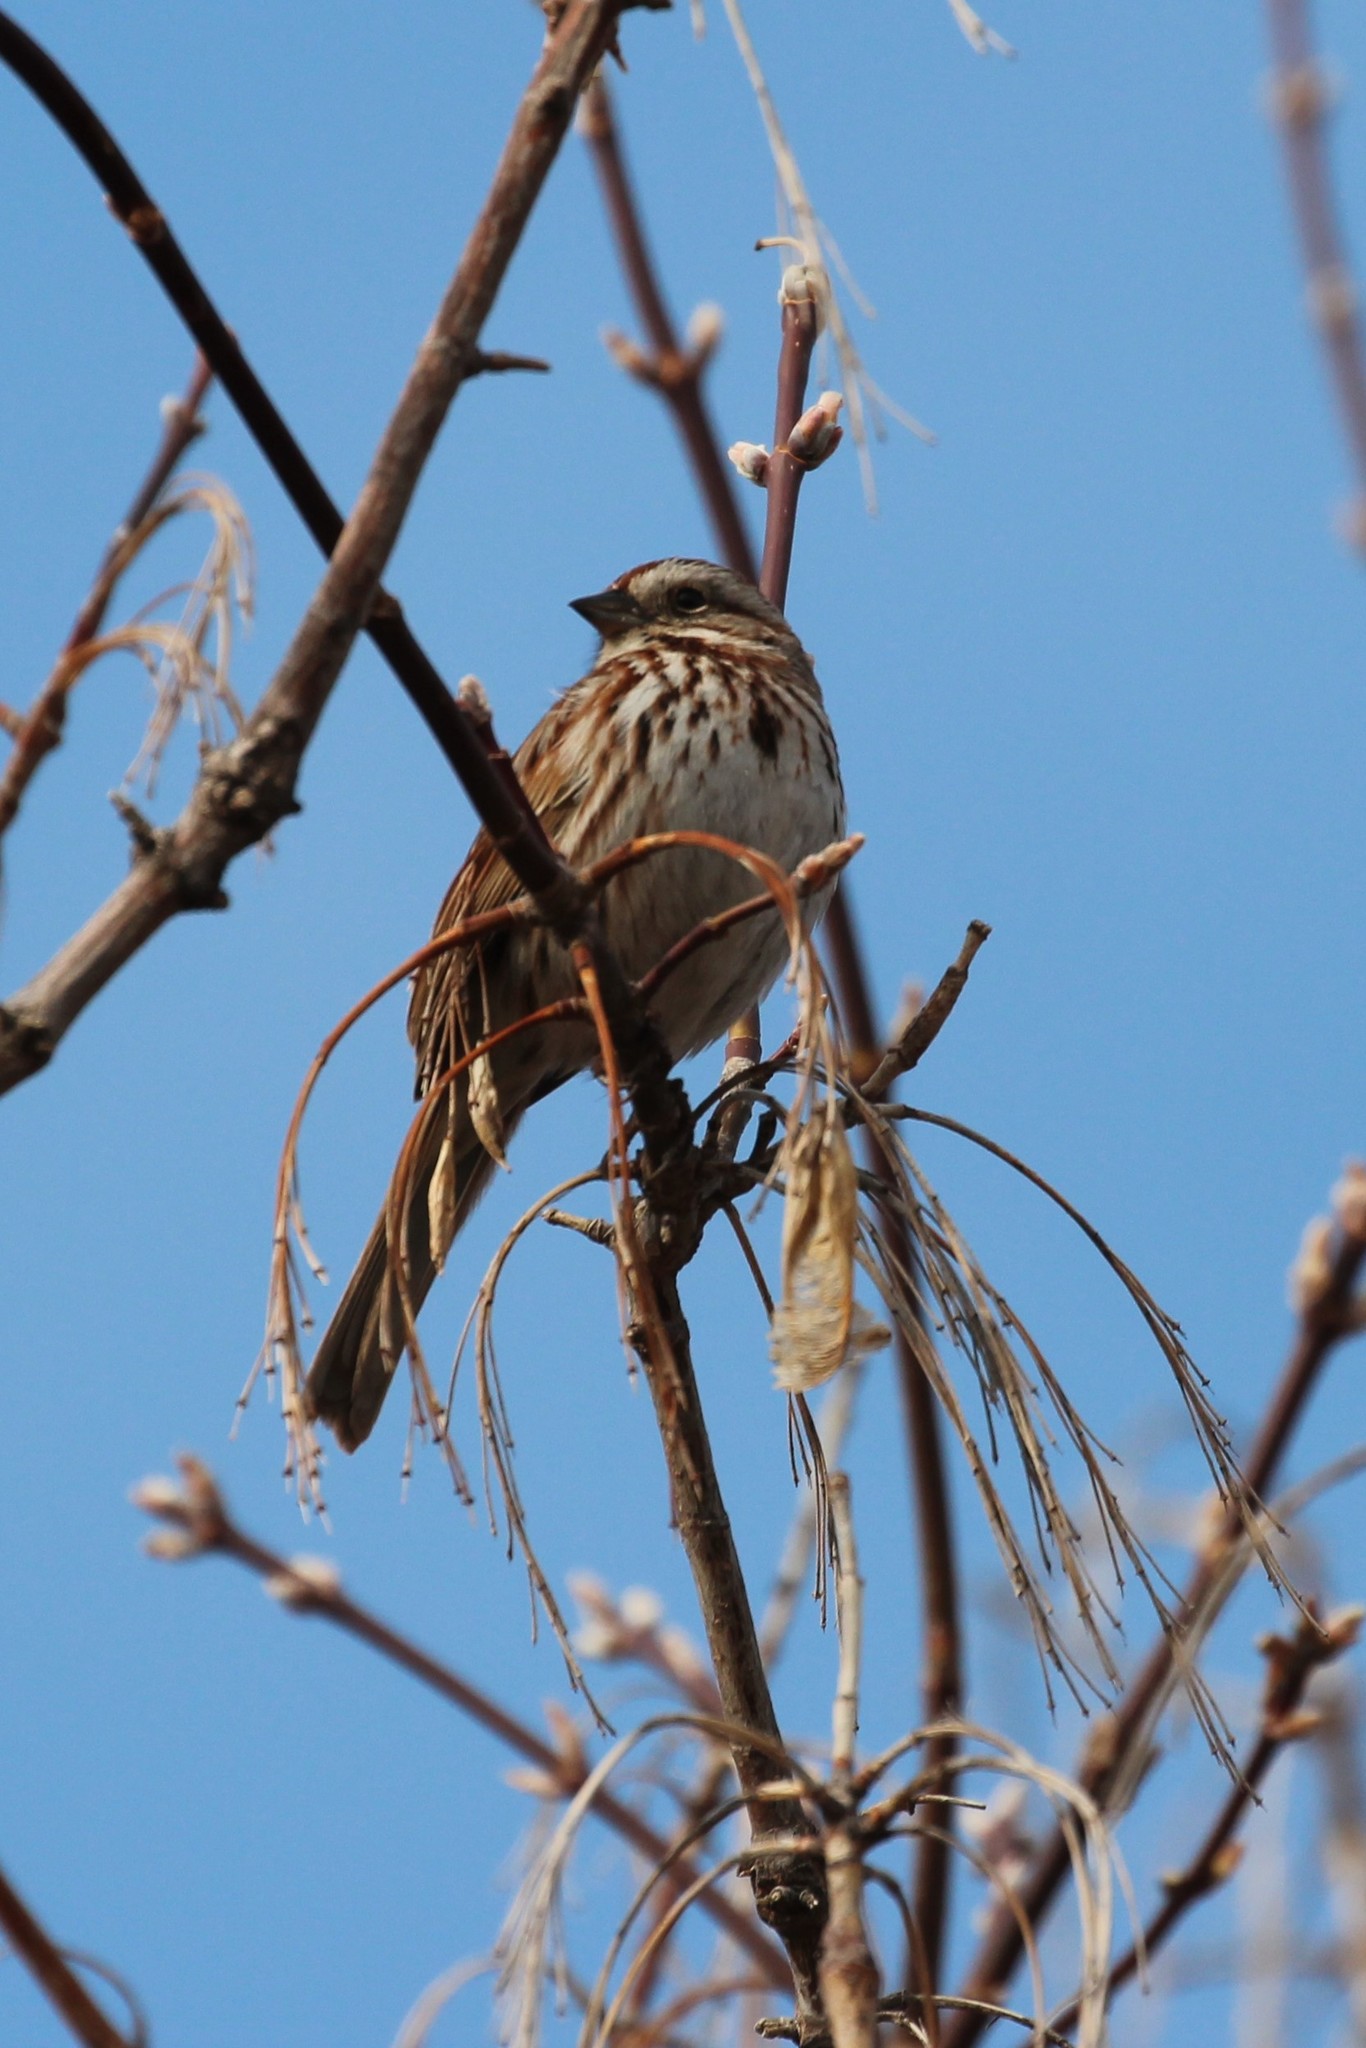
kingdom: Animalia
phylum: Chordata
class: Aves
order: Passeriformes
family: Passerellidae
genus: Melospiza
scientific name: Melospiza melodia
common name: Song sparrow
